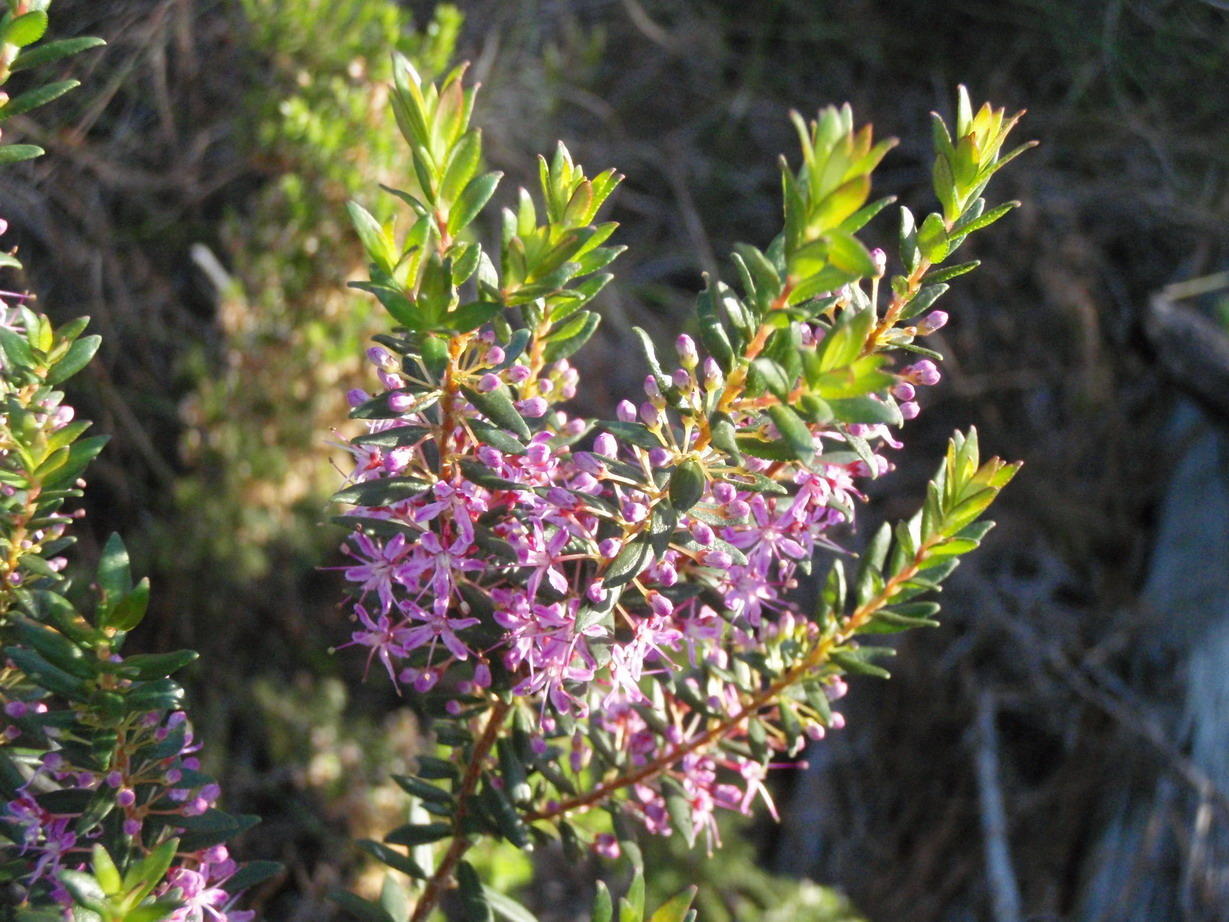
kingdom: Plantae
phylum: Tracheophyta
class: Magnoliopsida
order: Sapindales
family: Rutaceae
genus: Agathosma
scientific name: Agathosma ovata
